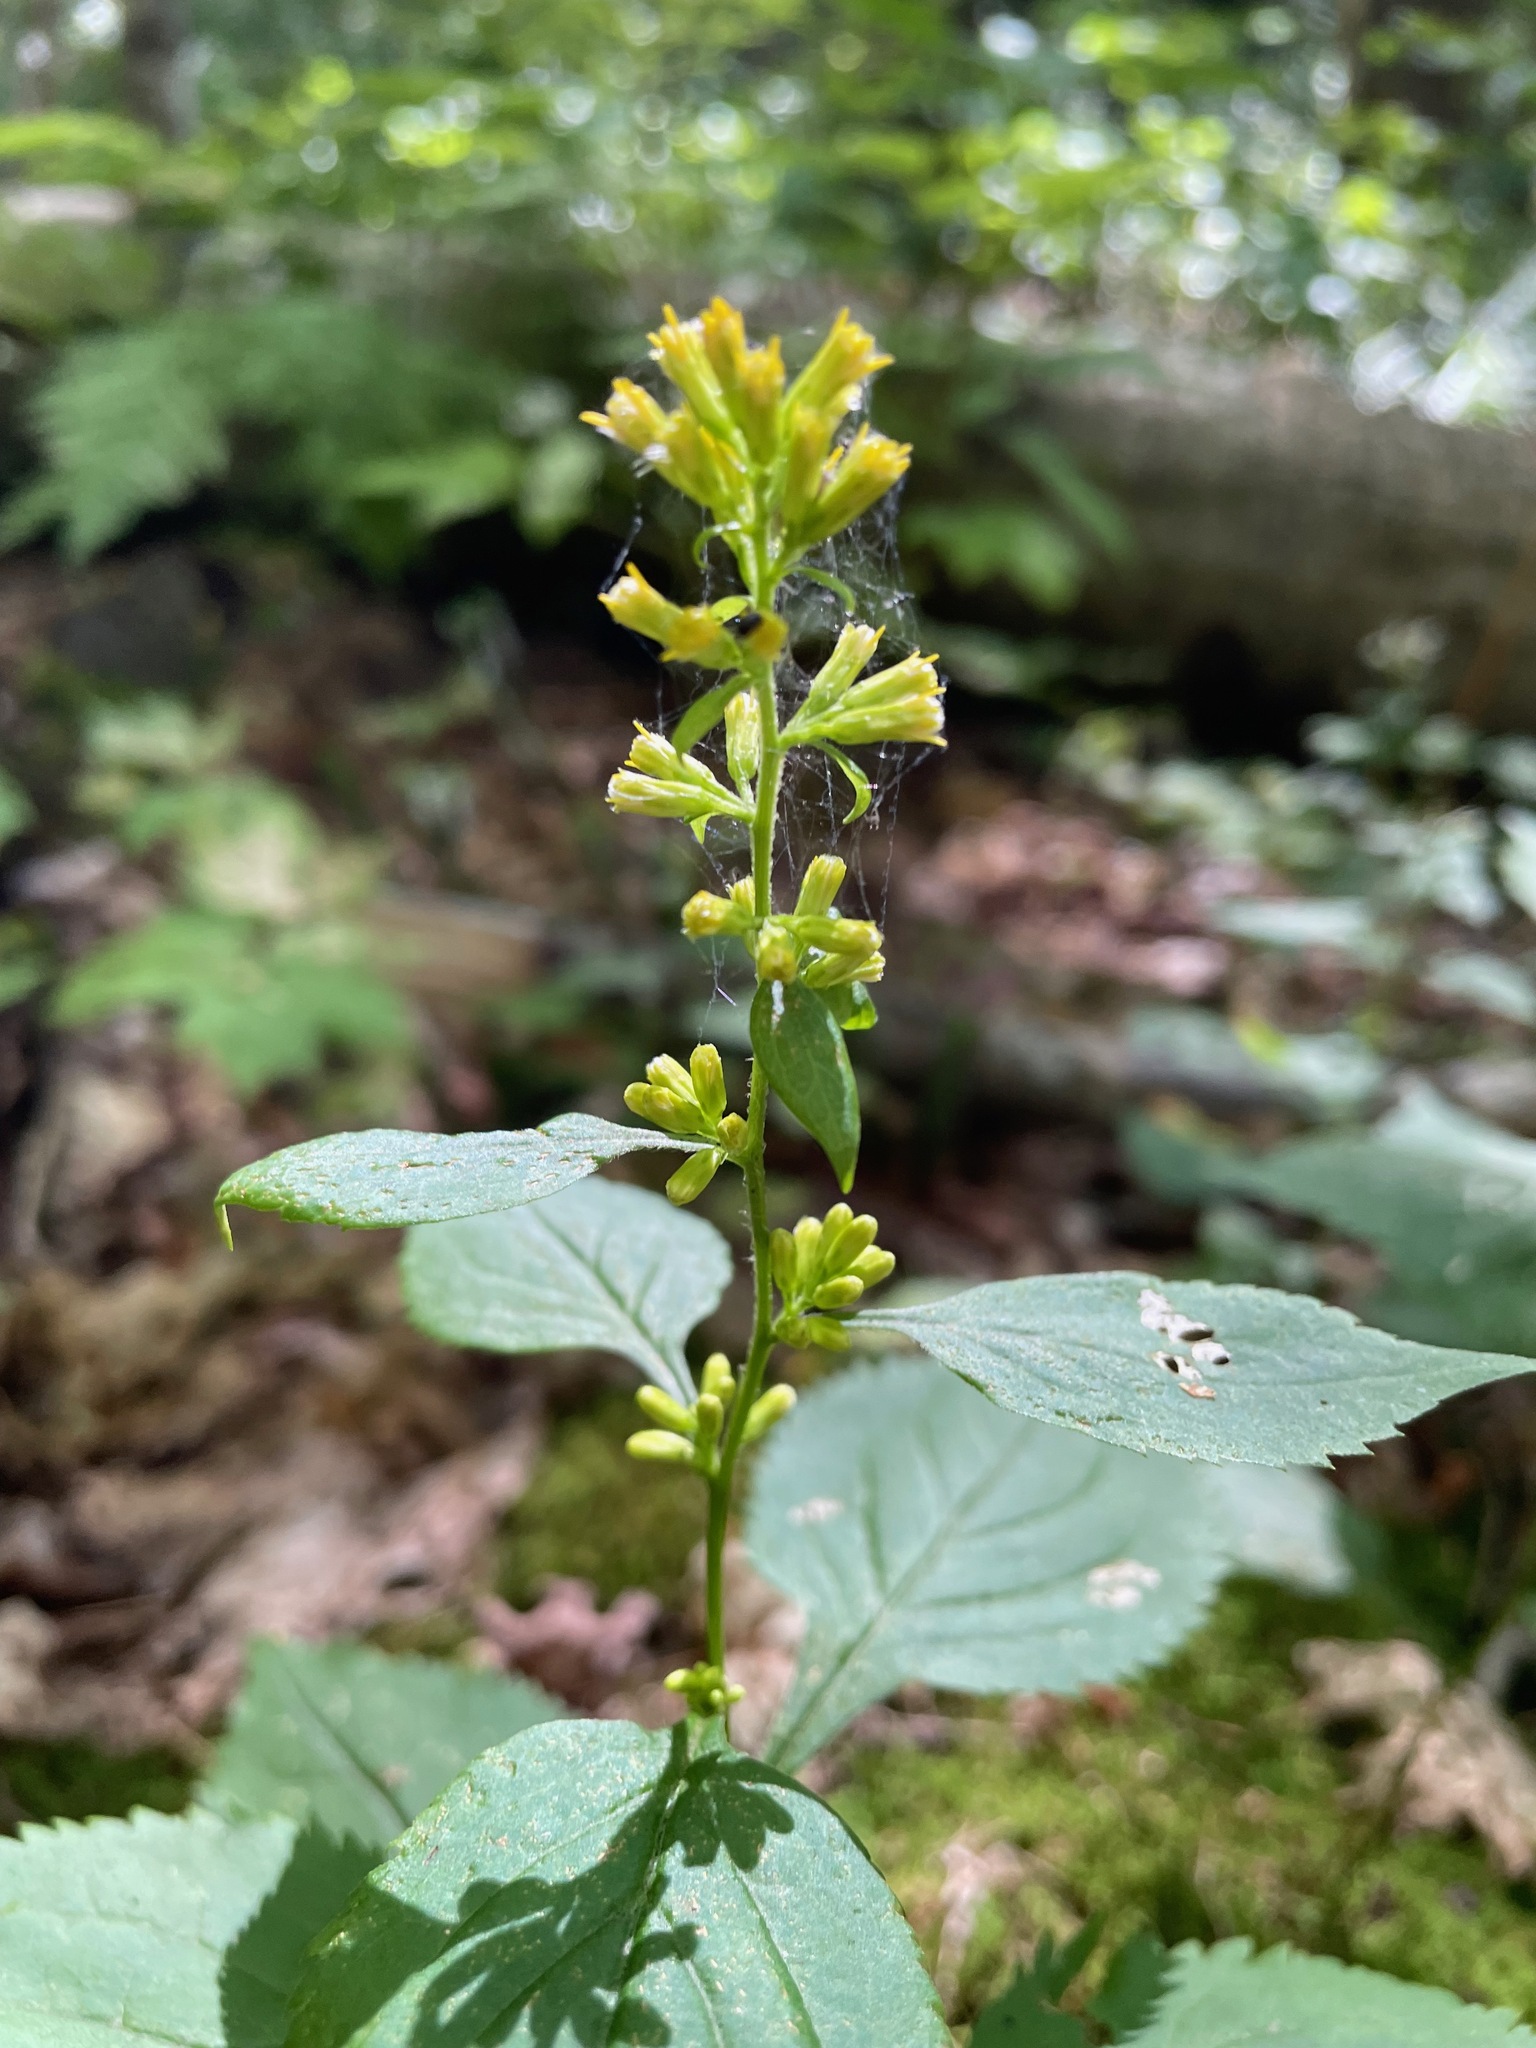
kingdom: Plantae
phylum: Tracheophyta
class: Magnoliopsida
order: Asterales
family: Asteraceae
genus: Solidago
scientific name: Solidago flexicaulis
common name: Zig-zag goldenrod
